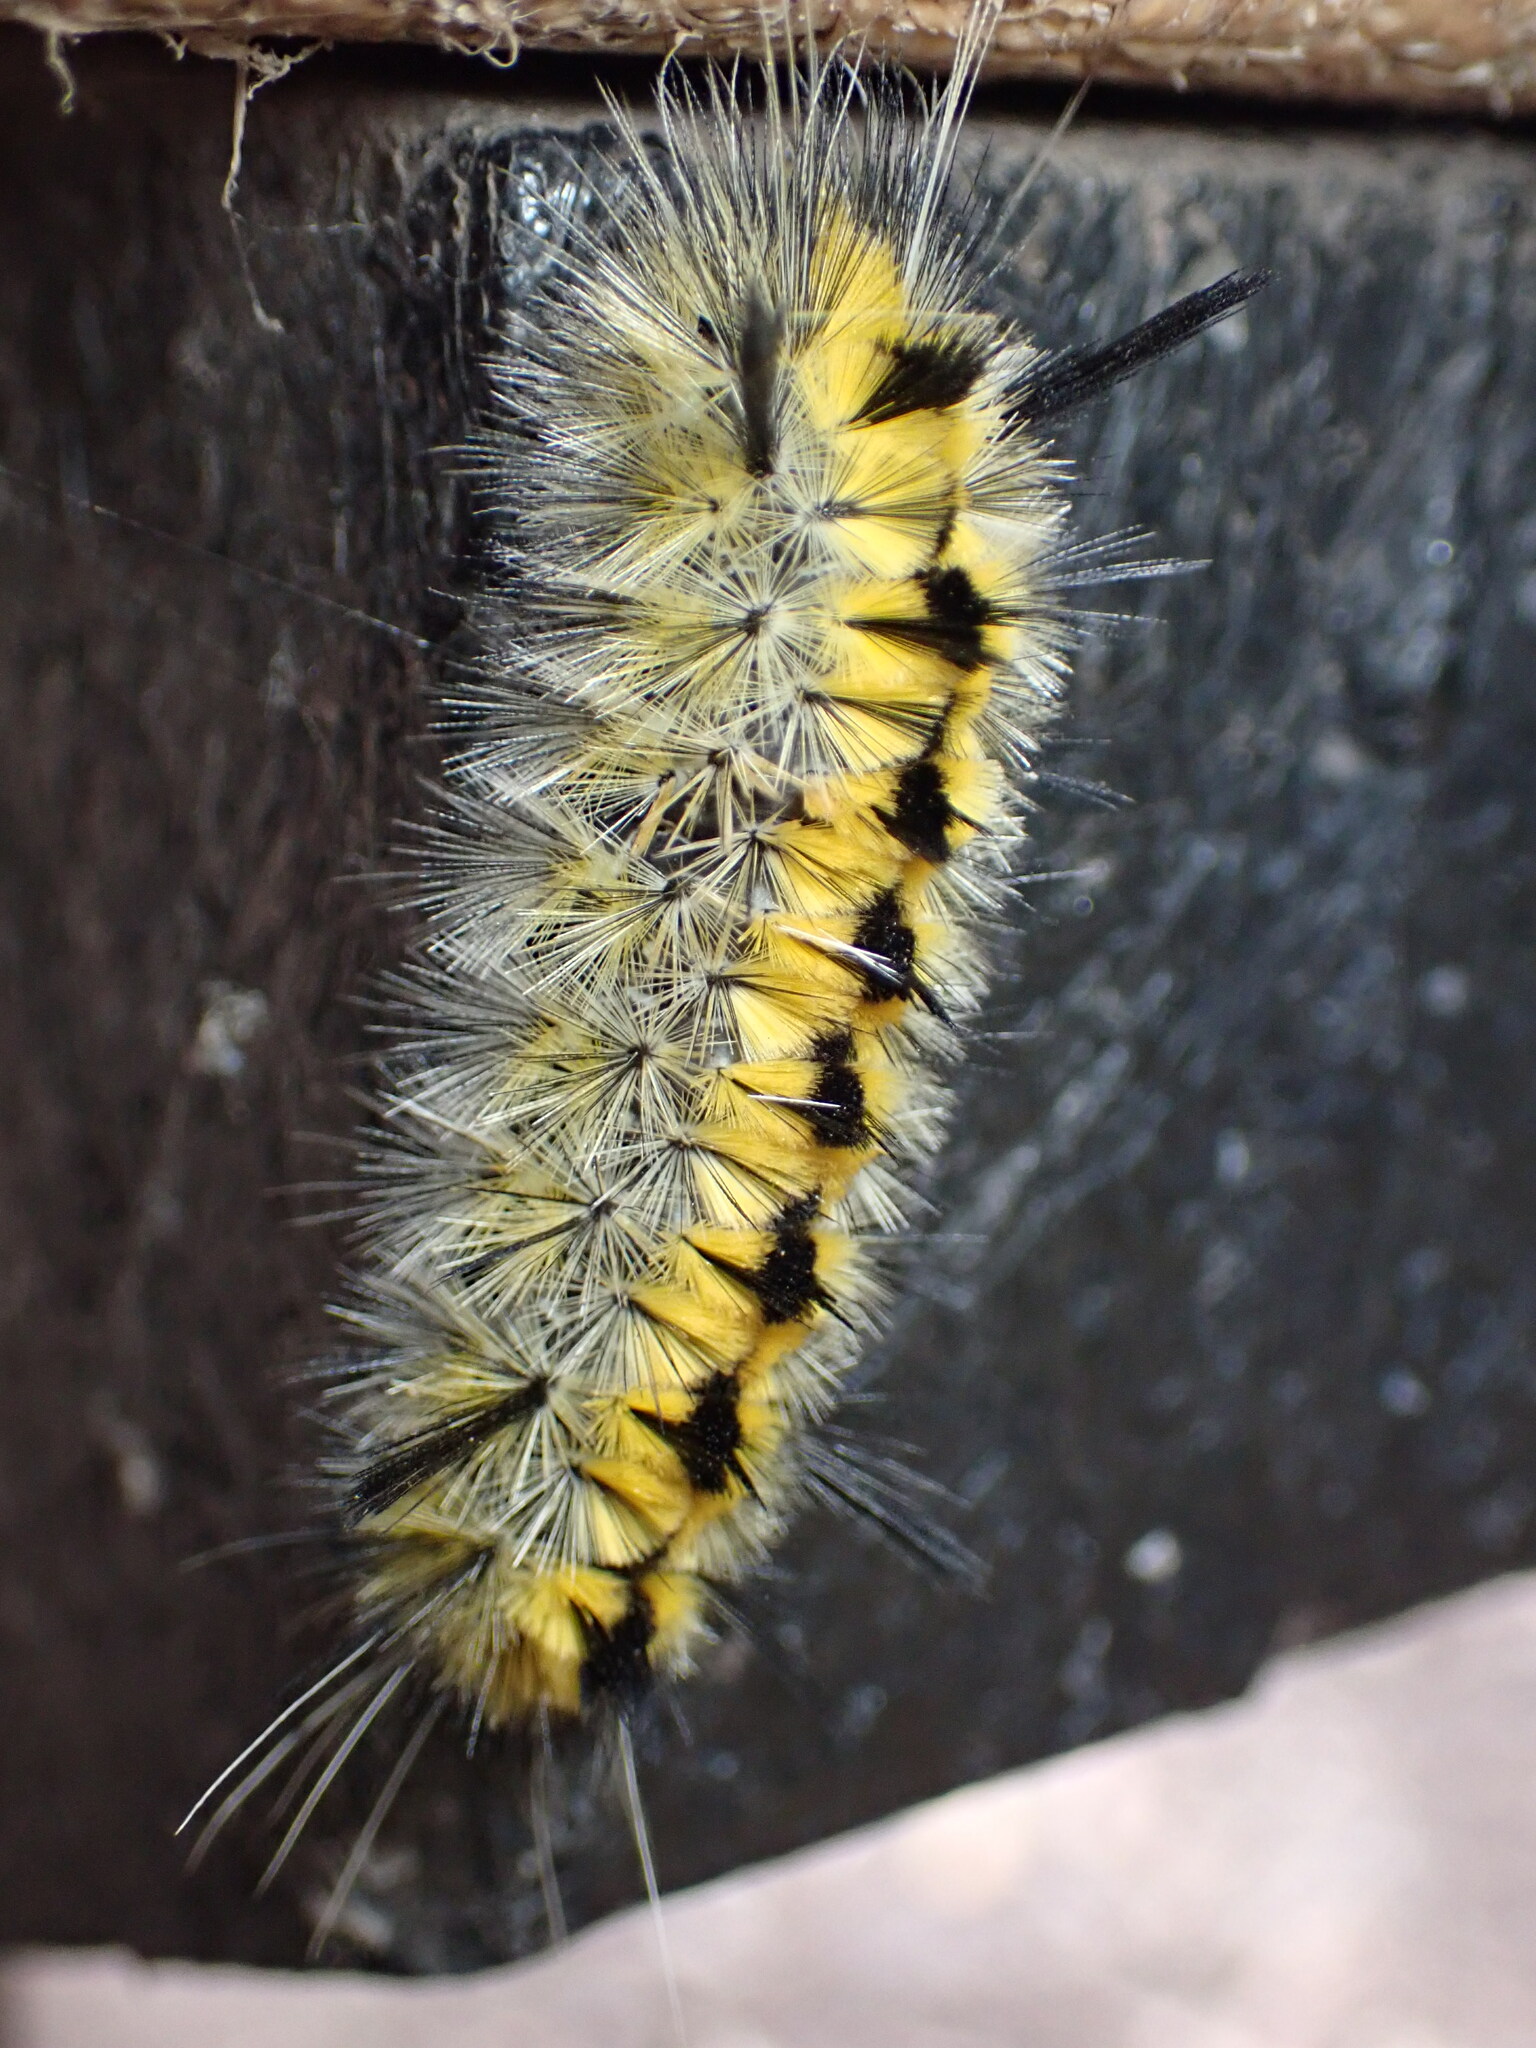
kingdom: Animalia
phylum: Arthropoda
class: Insecta
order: Lepidoptera
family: Erebidae
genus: Lophocampa
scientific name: Lophocampa indistincta
